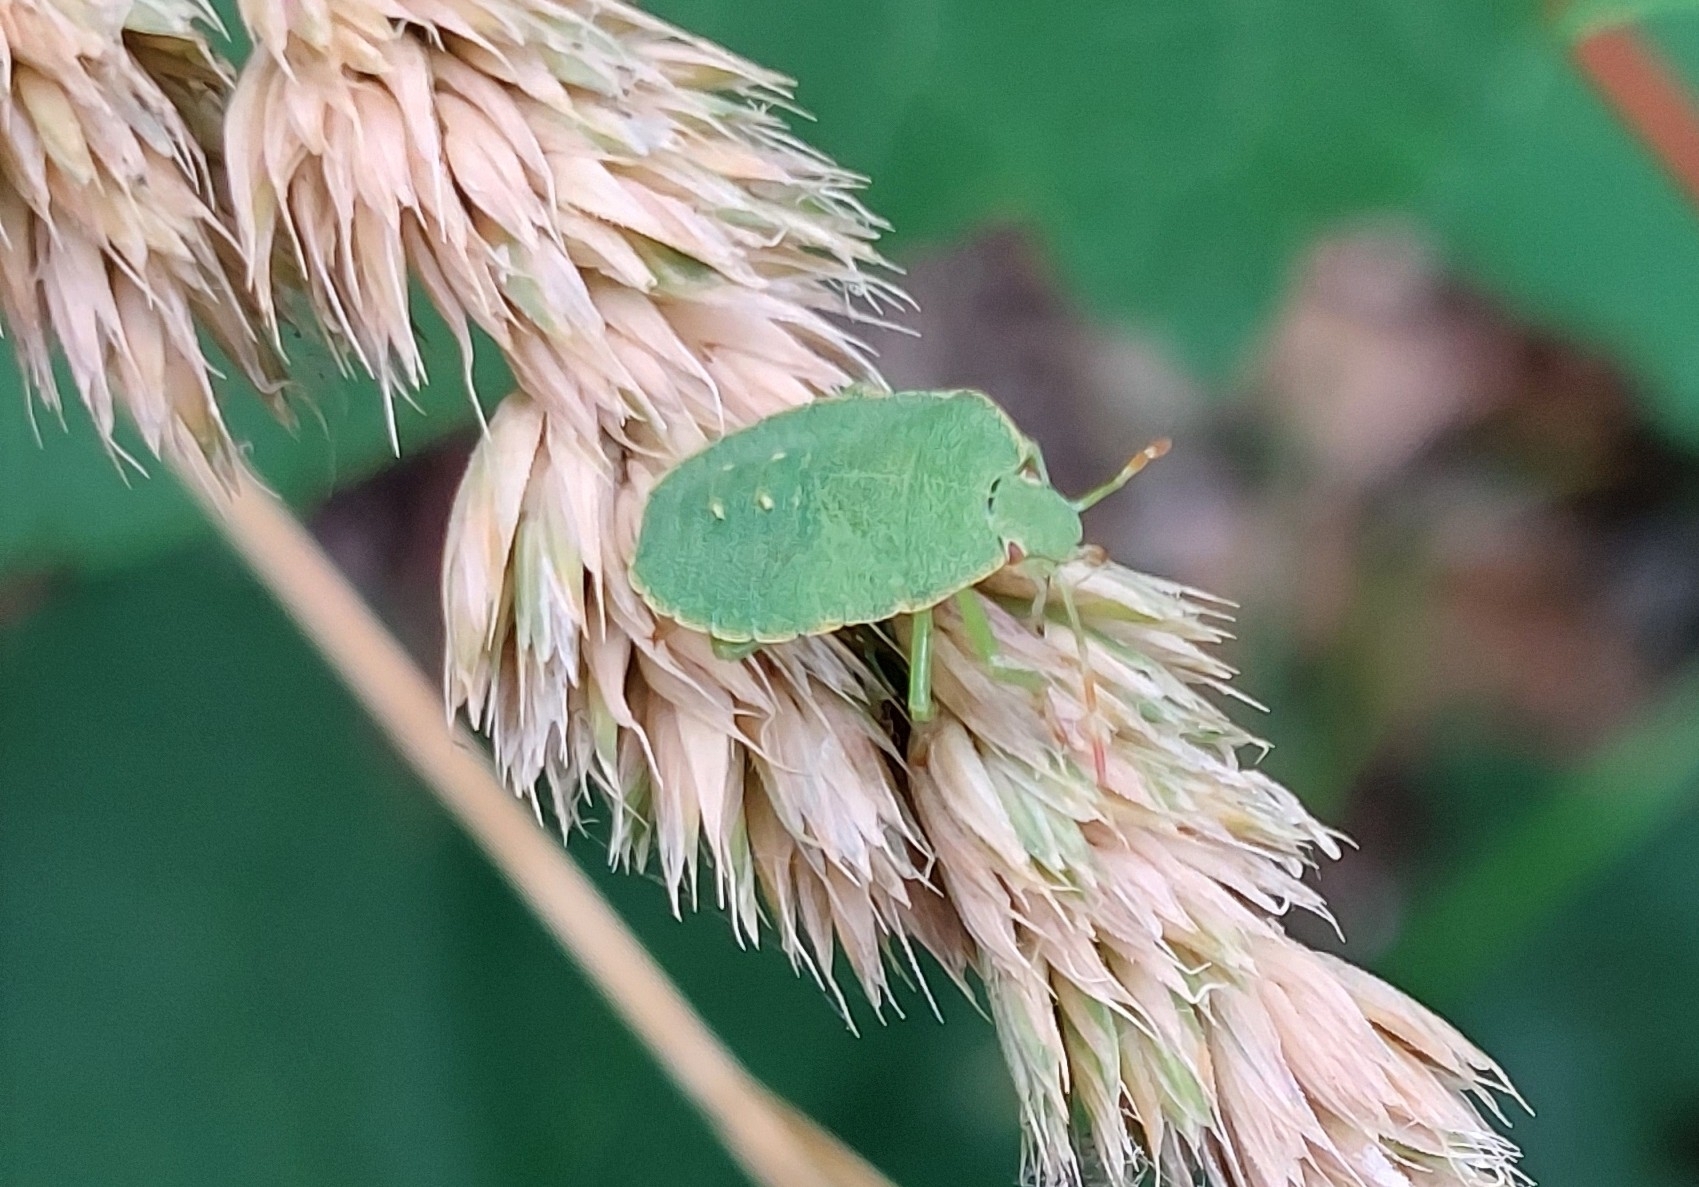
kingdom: Animalia
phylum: Arthropoda
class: Insecta
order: Hemiptera
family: Pentatomidae
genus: Palomena
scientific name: Palomena prasina
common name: Green shieldbug
